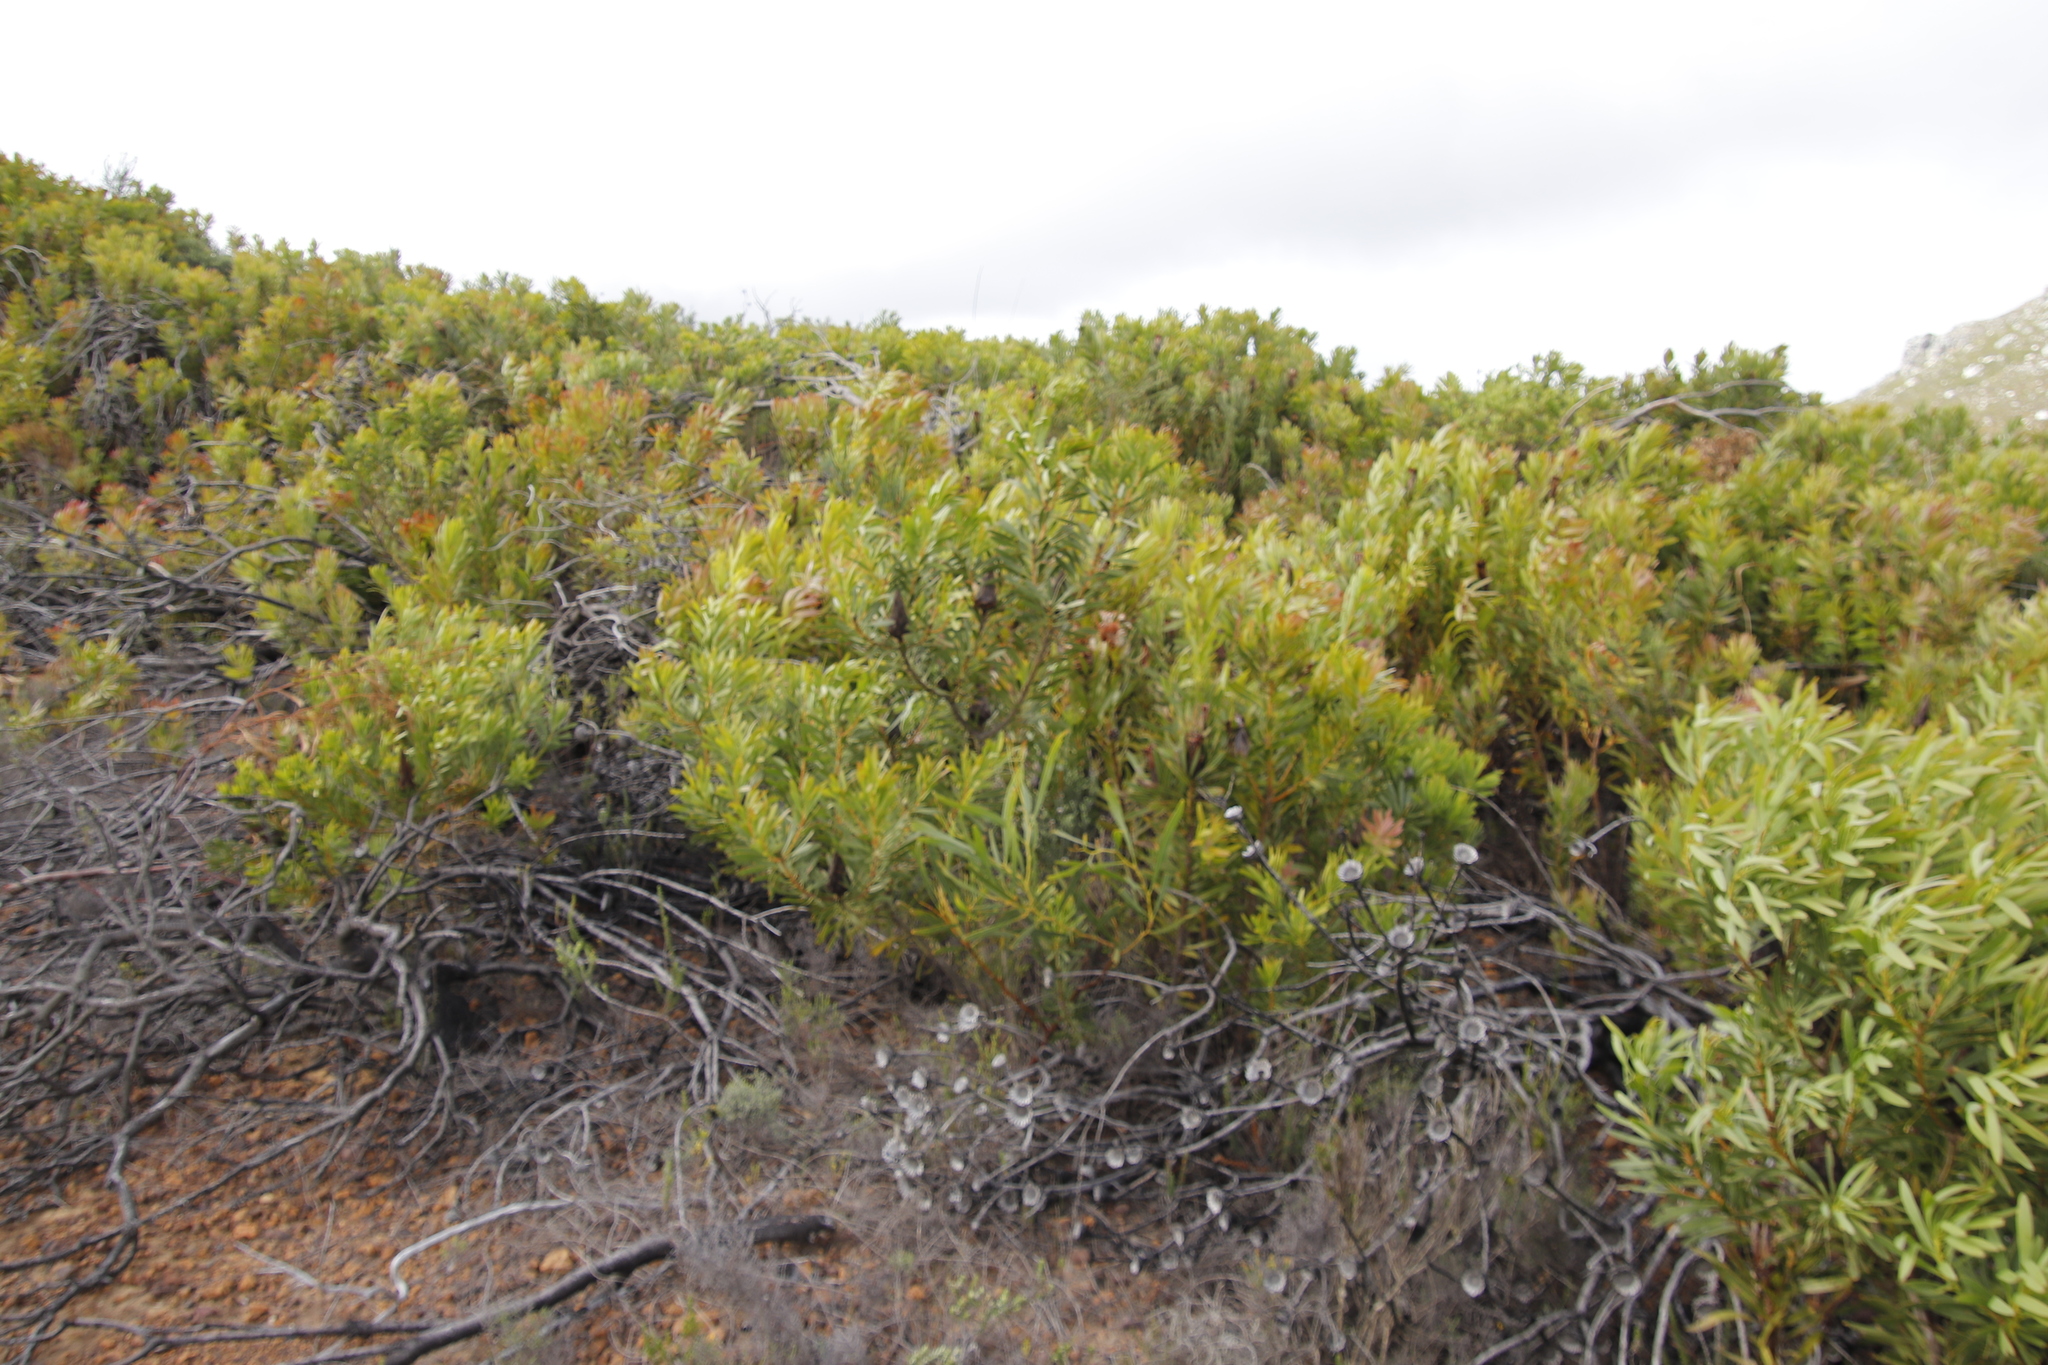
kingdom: Plantae
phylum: Tracheophyta
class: Magnoliopsida
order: Proteales
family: Proteaceae
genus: Protea
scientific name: Protea repens
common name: Sugarbush
